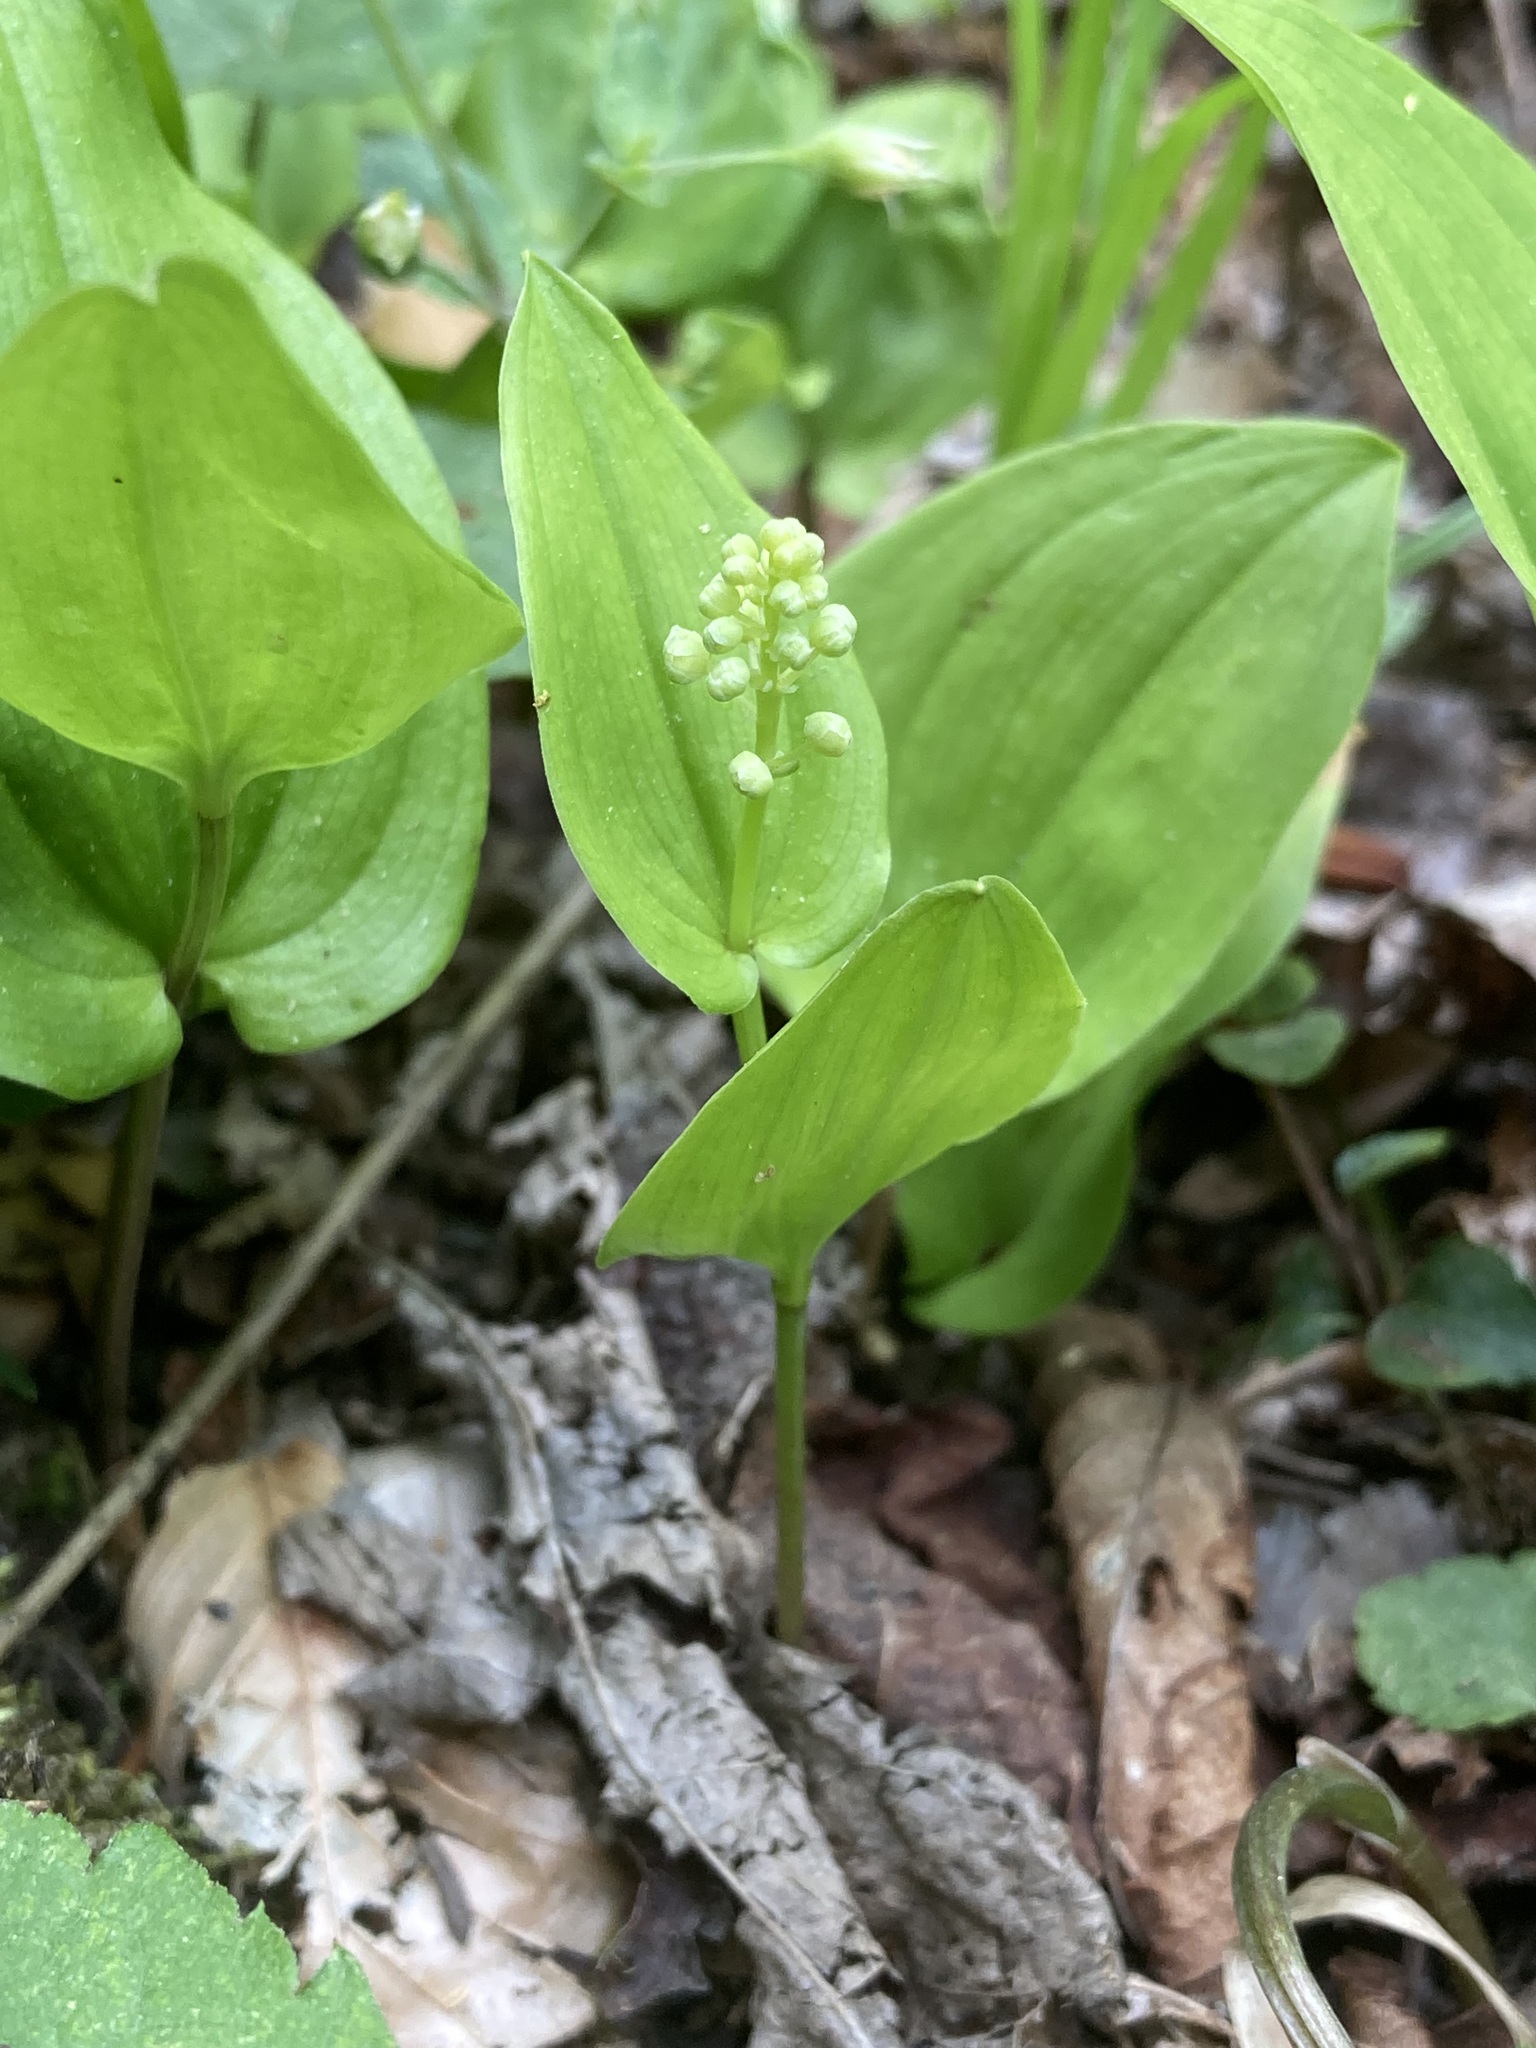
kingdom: Plantae
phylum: Tracheophyta
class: Liliopsida
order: Asparagales
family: Asparagaceae
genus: Maianthemum
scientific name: Maianthemum canadense
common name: False lily-of-the-valley
